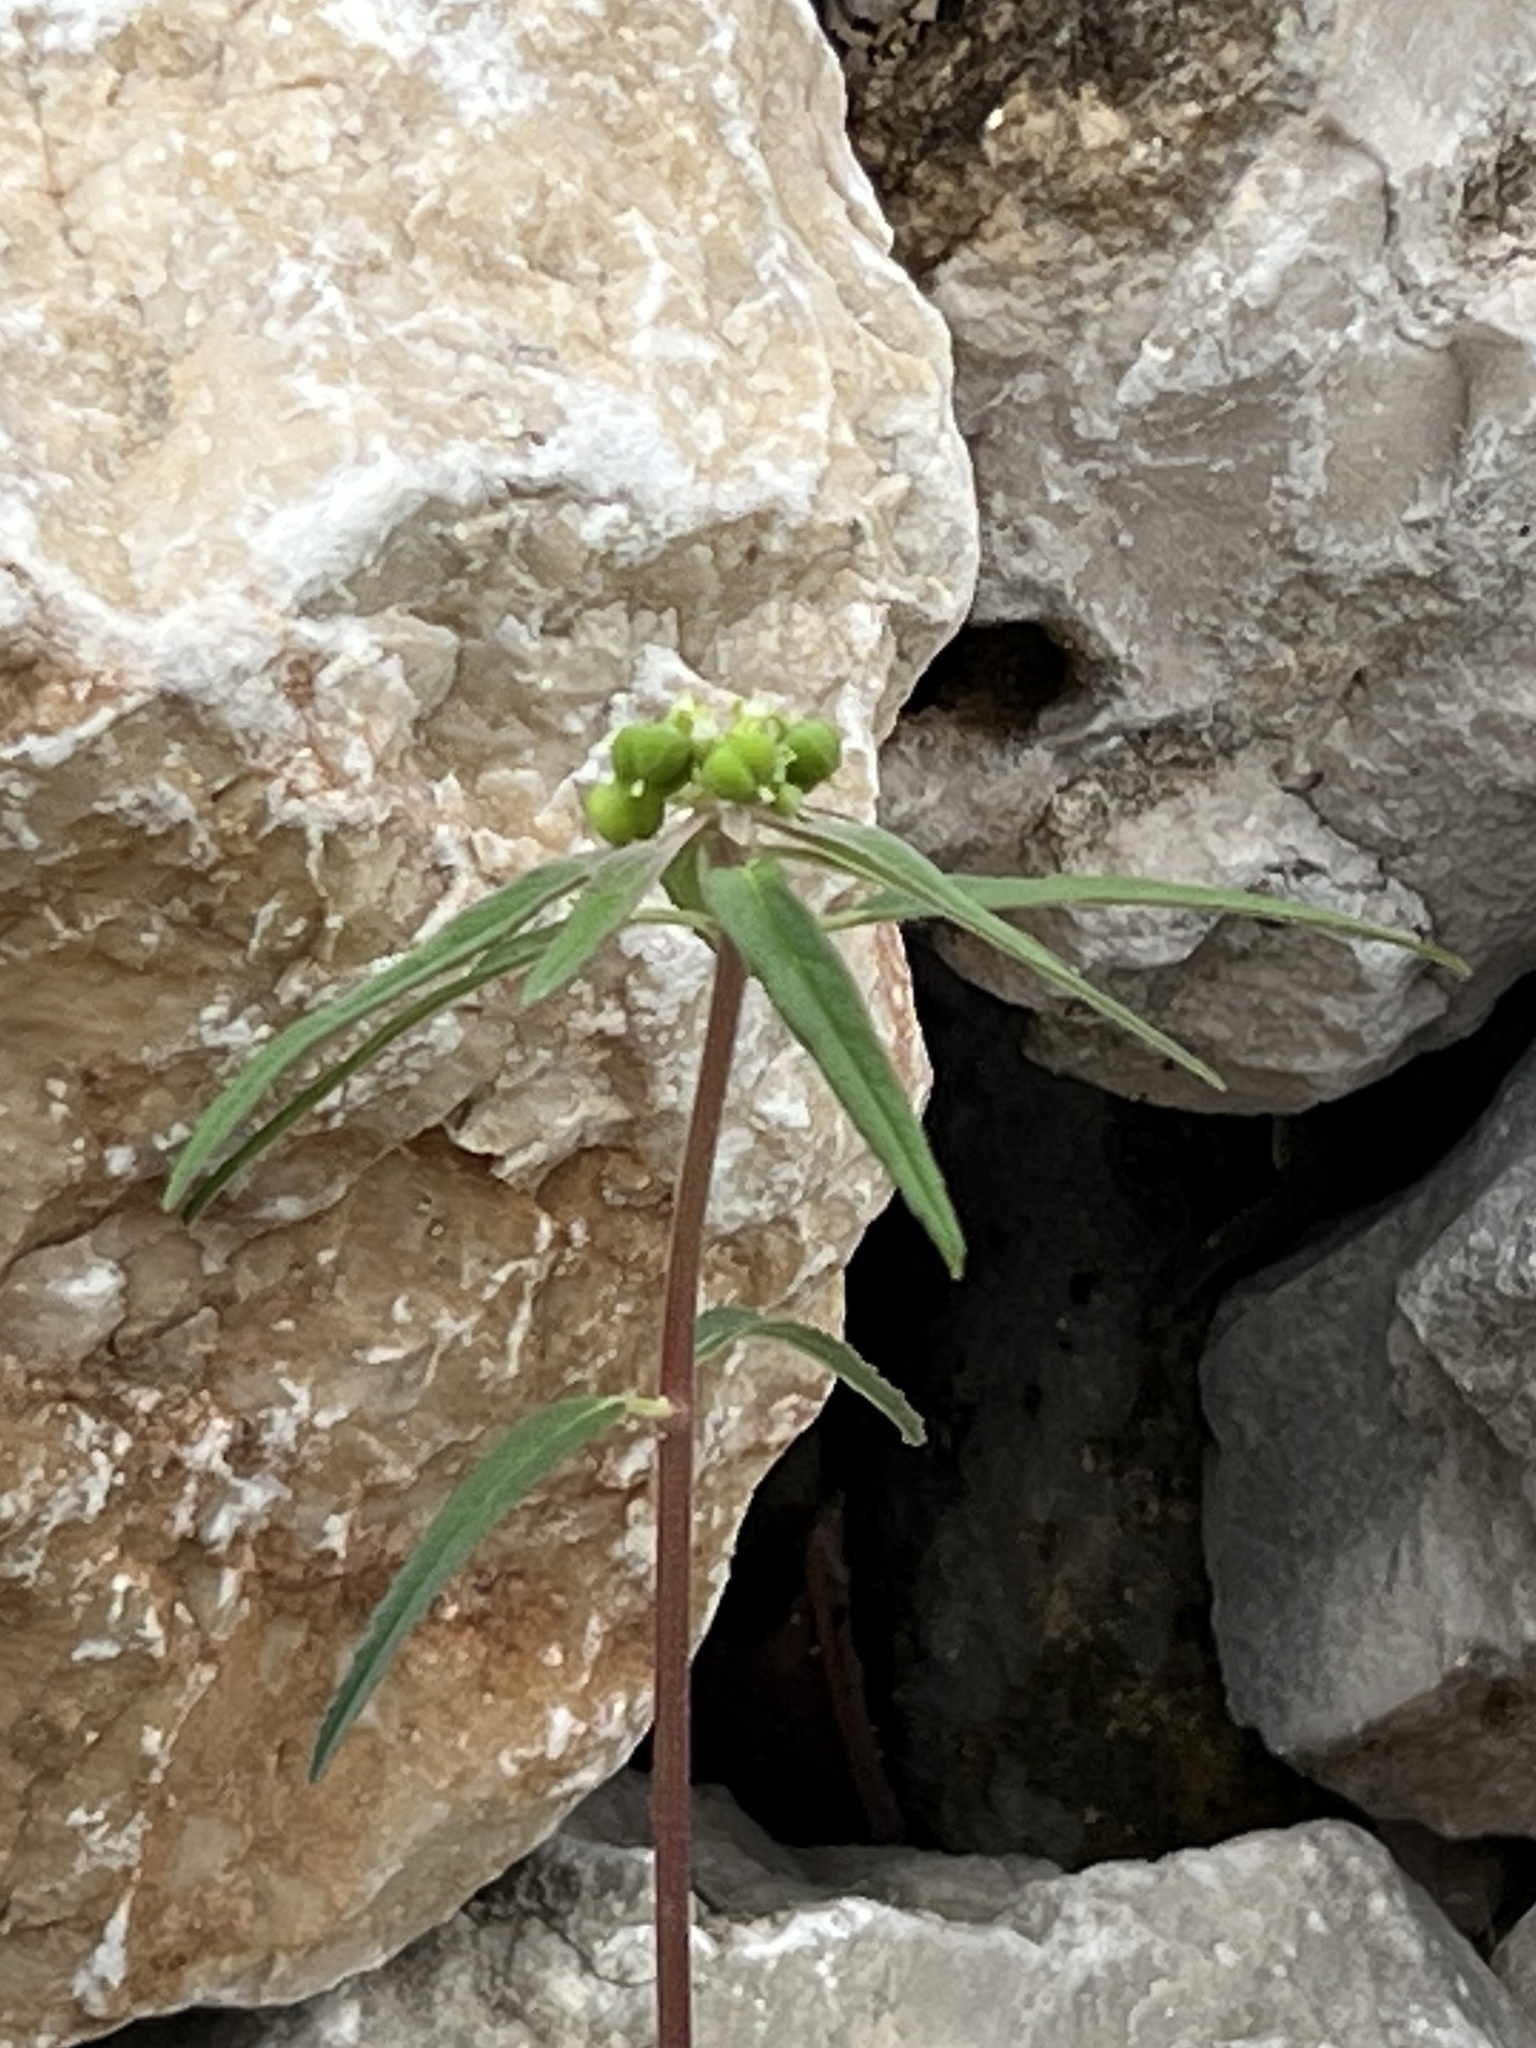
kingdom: Plantae
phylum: Tracheophyta
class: Magnoliopsida
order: Malpighiales
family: Euphorbiaceae
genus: Euphorbia
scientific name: Euphorbia davidii
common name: David's spurge
